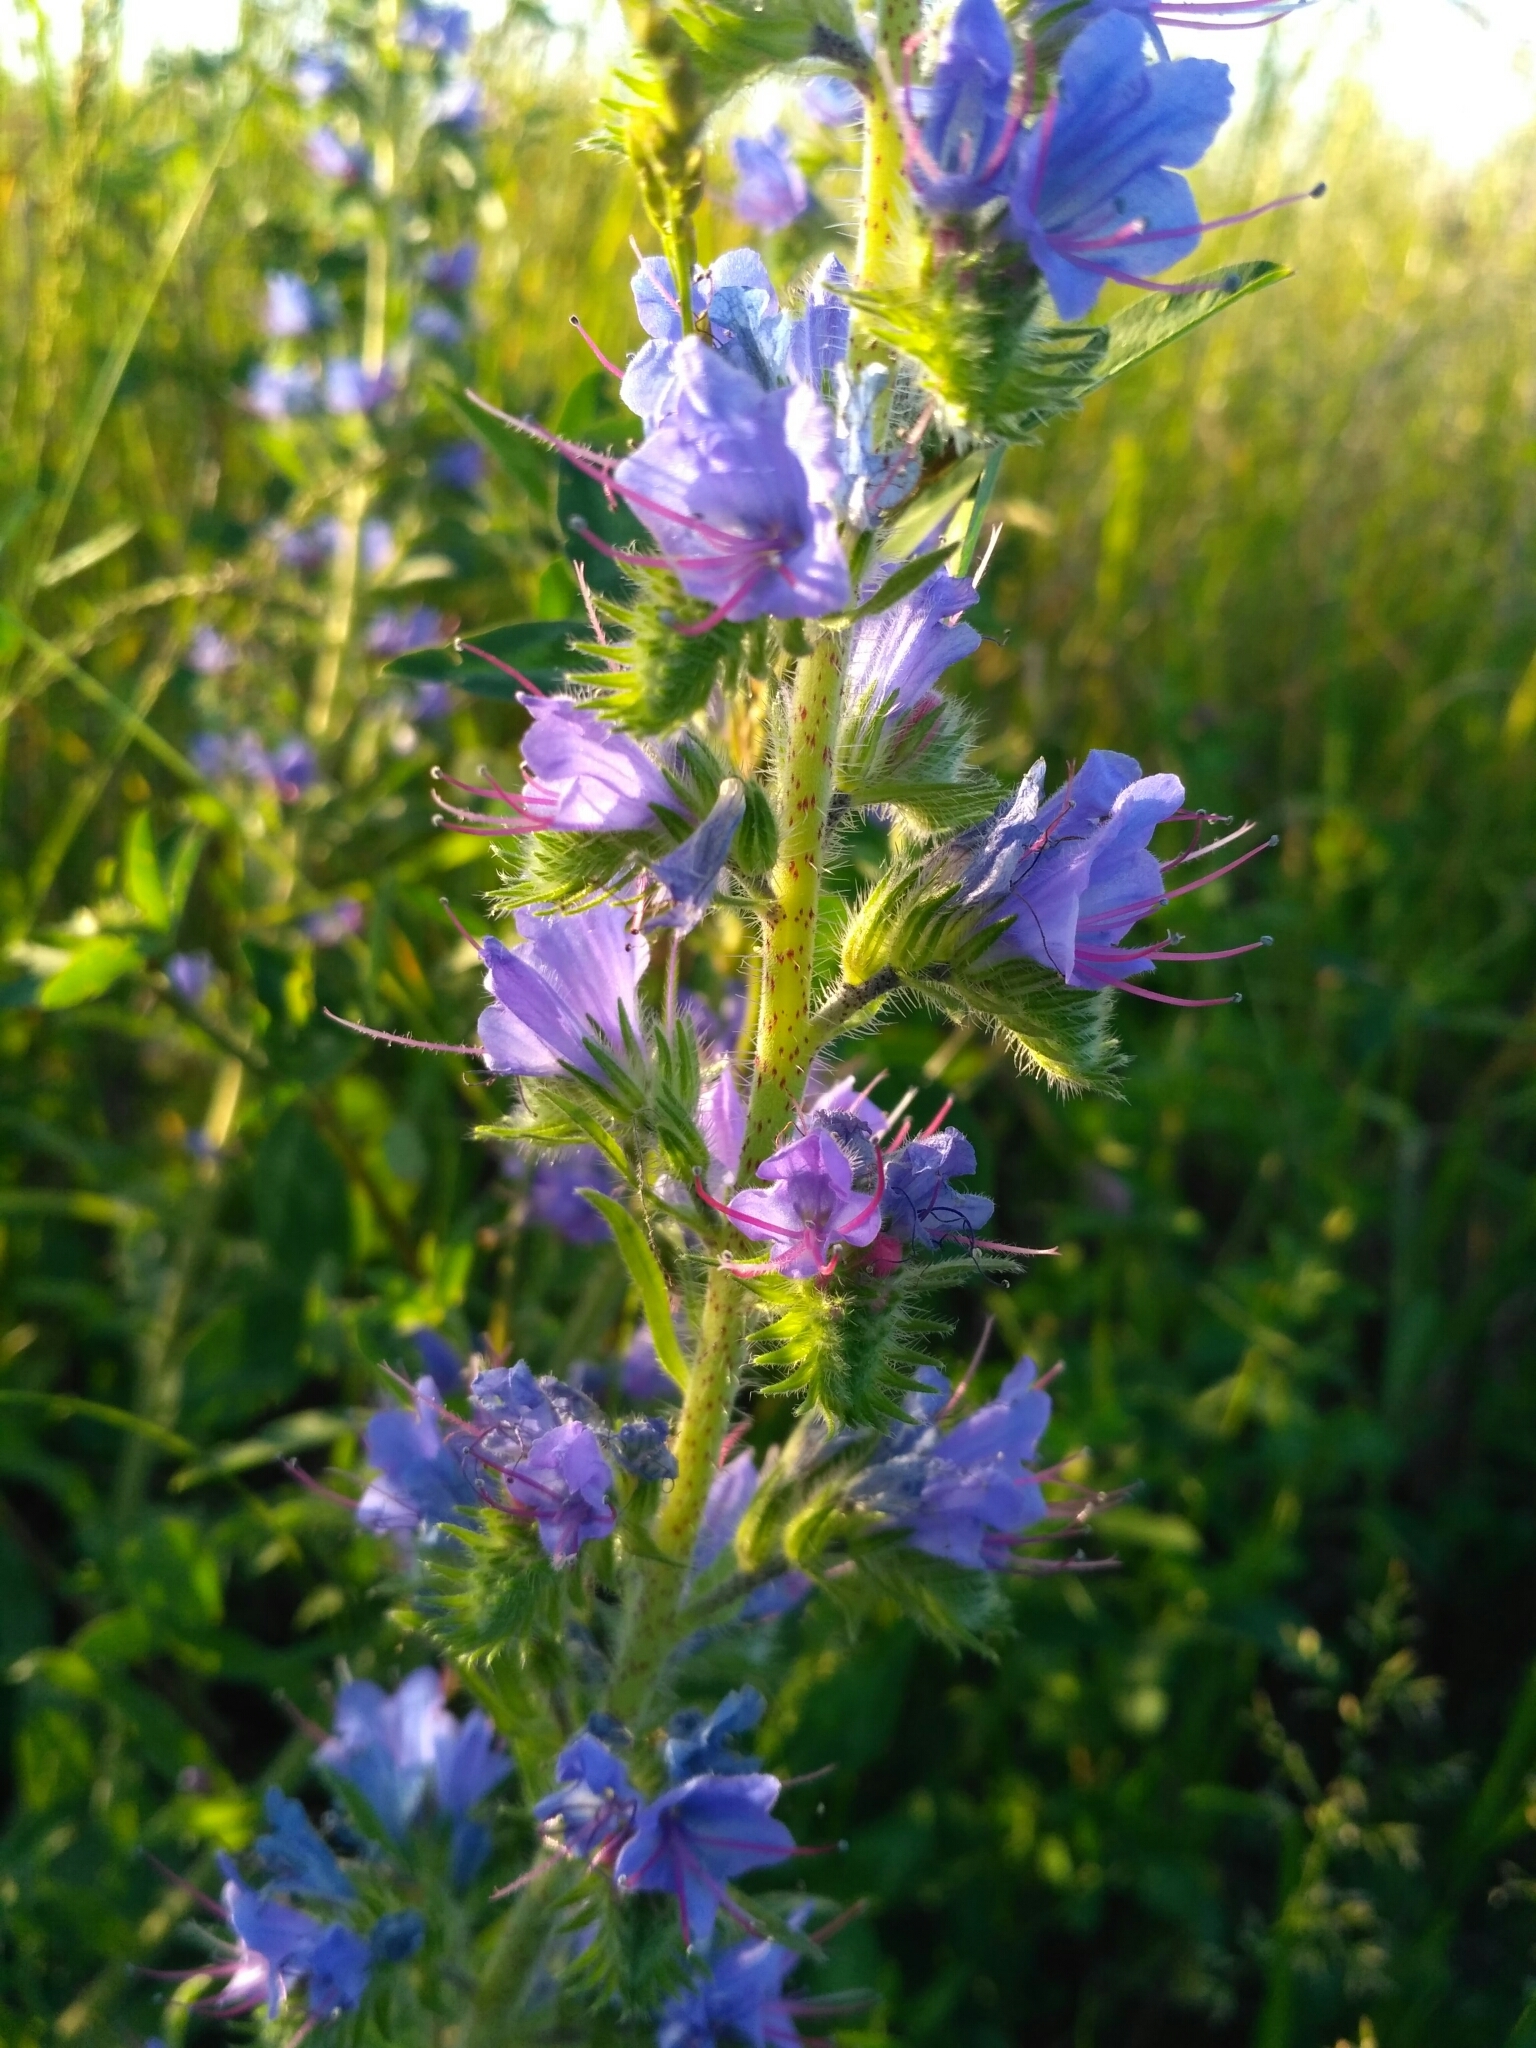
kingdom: Plantae
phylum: Tracheophyta
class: Magnoliopsida
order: Boraginales
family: Boraginaceae
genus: Echium
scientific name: Echium vulgare
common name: Common viper's bugloss
